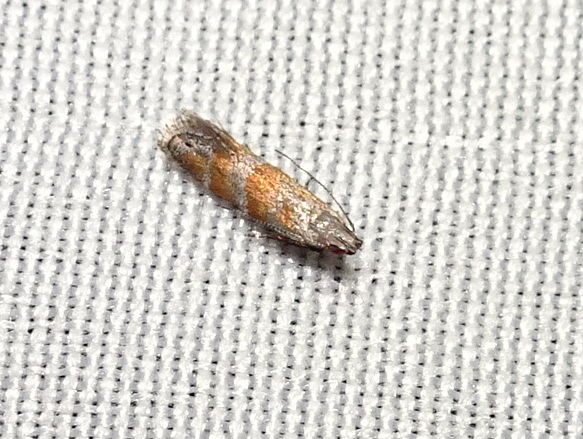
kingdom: Animalia
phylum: Arthropoda
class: Insecta
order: Lepidoptera
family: Gelechiidae
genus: Battaristis
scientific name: Battaristis vittella
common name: Orange stripe-backed moth
